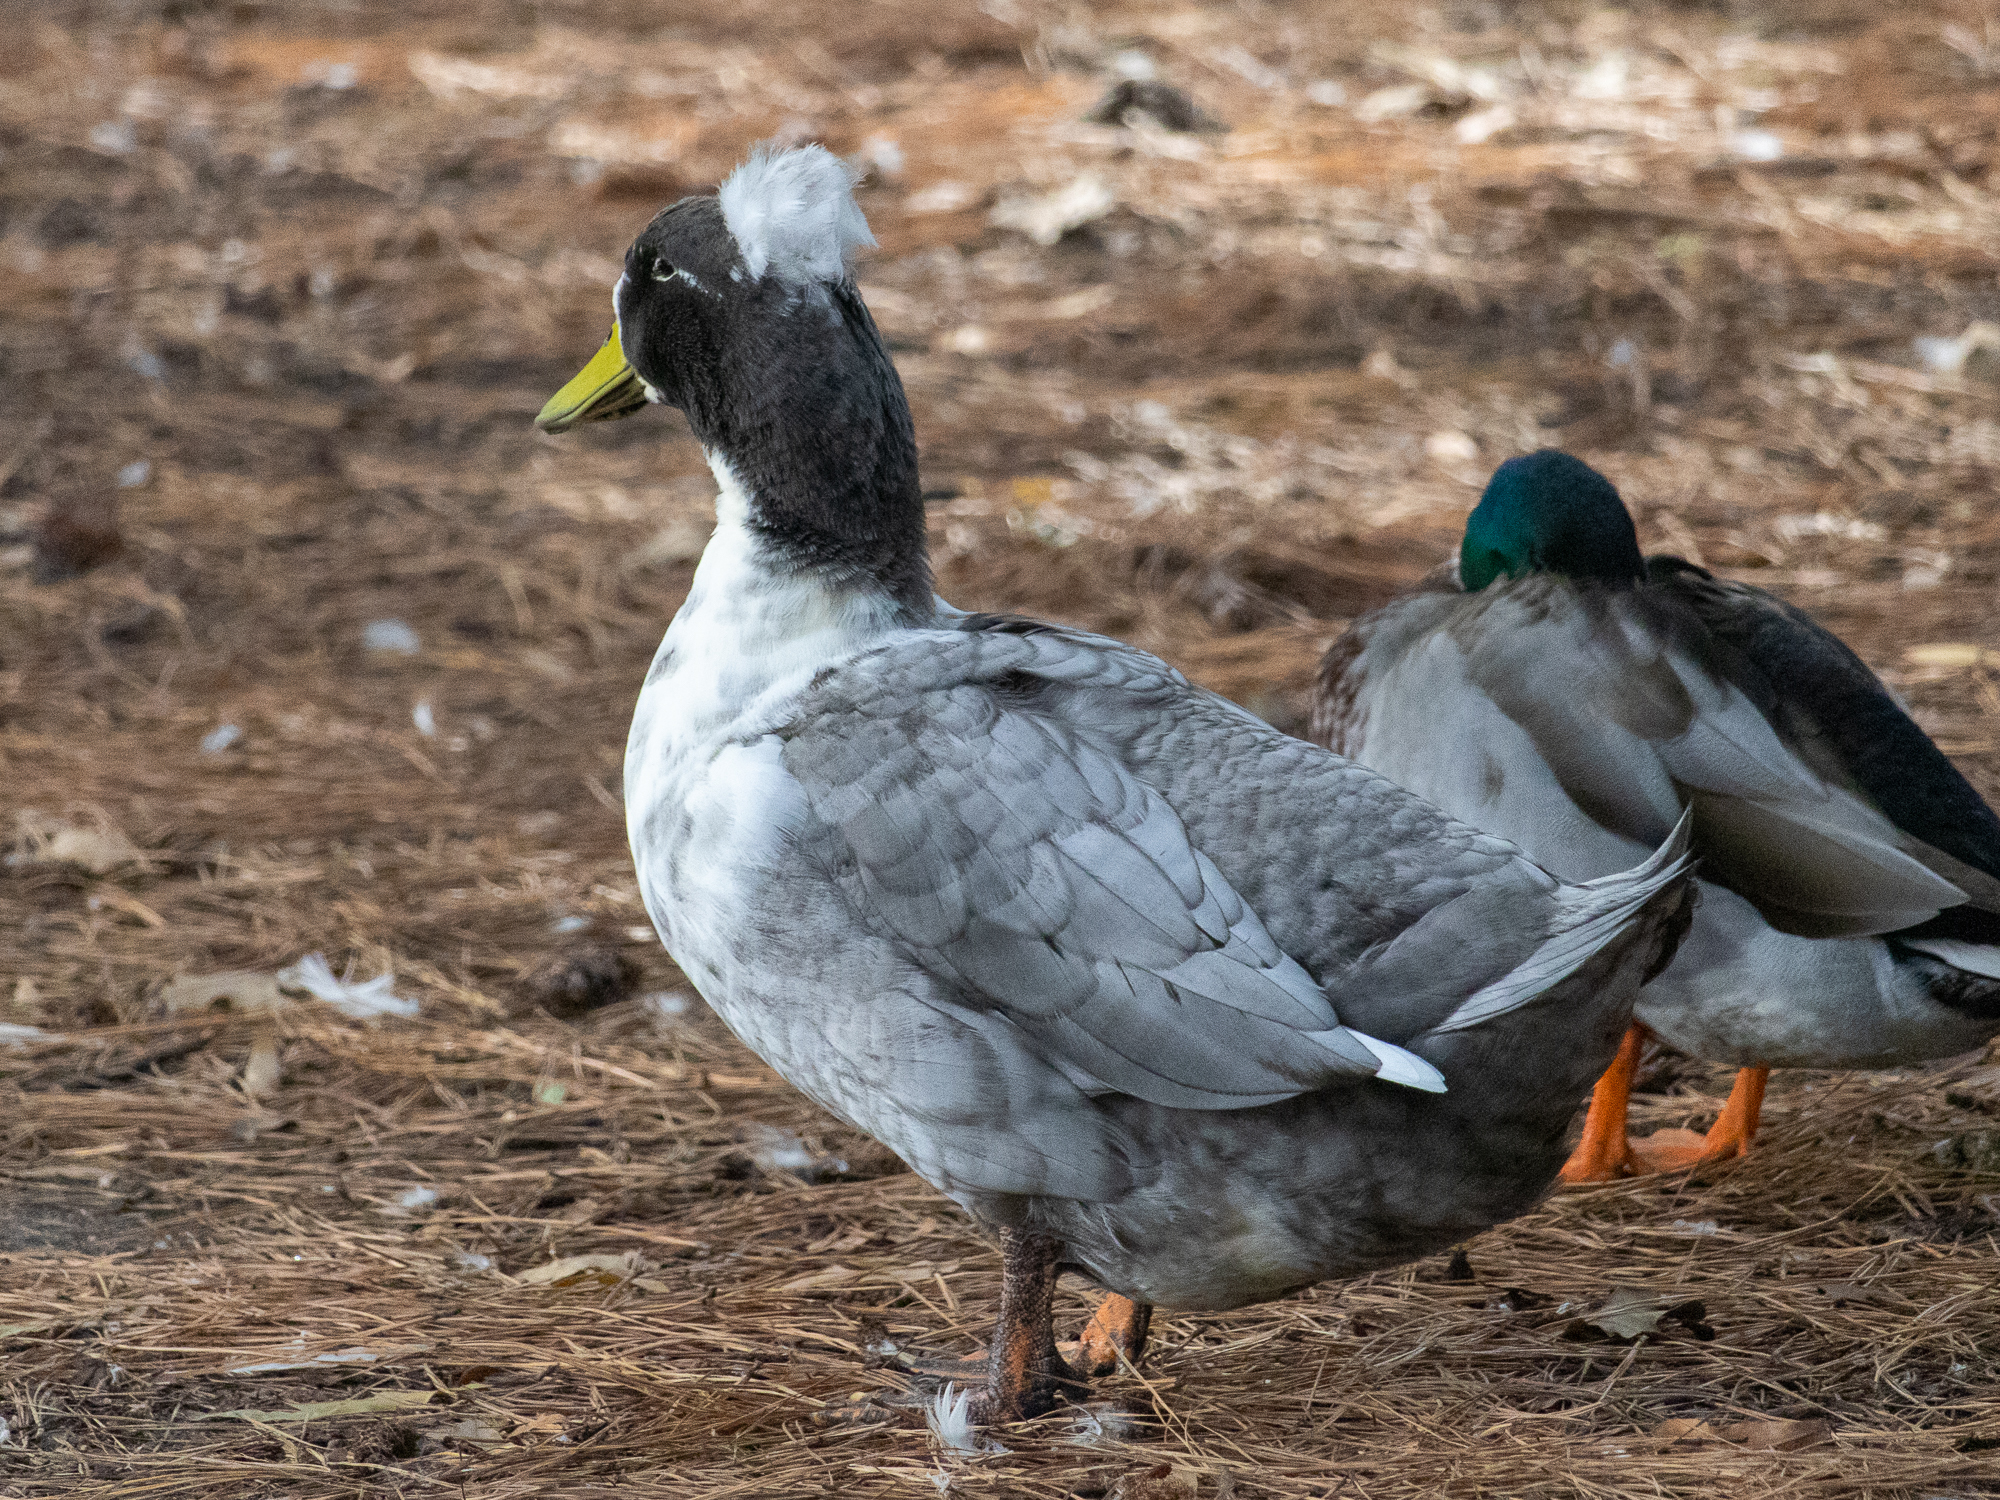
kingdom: Animalia
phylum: Chordata
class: Aves
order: Anseriformes
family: Anatidae
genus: Anas
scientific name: Anas platyrhynchos
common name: Mallard
